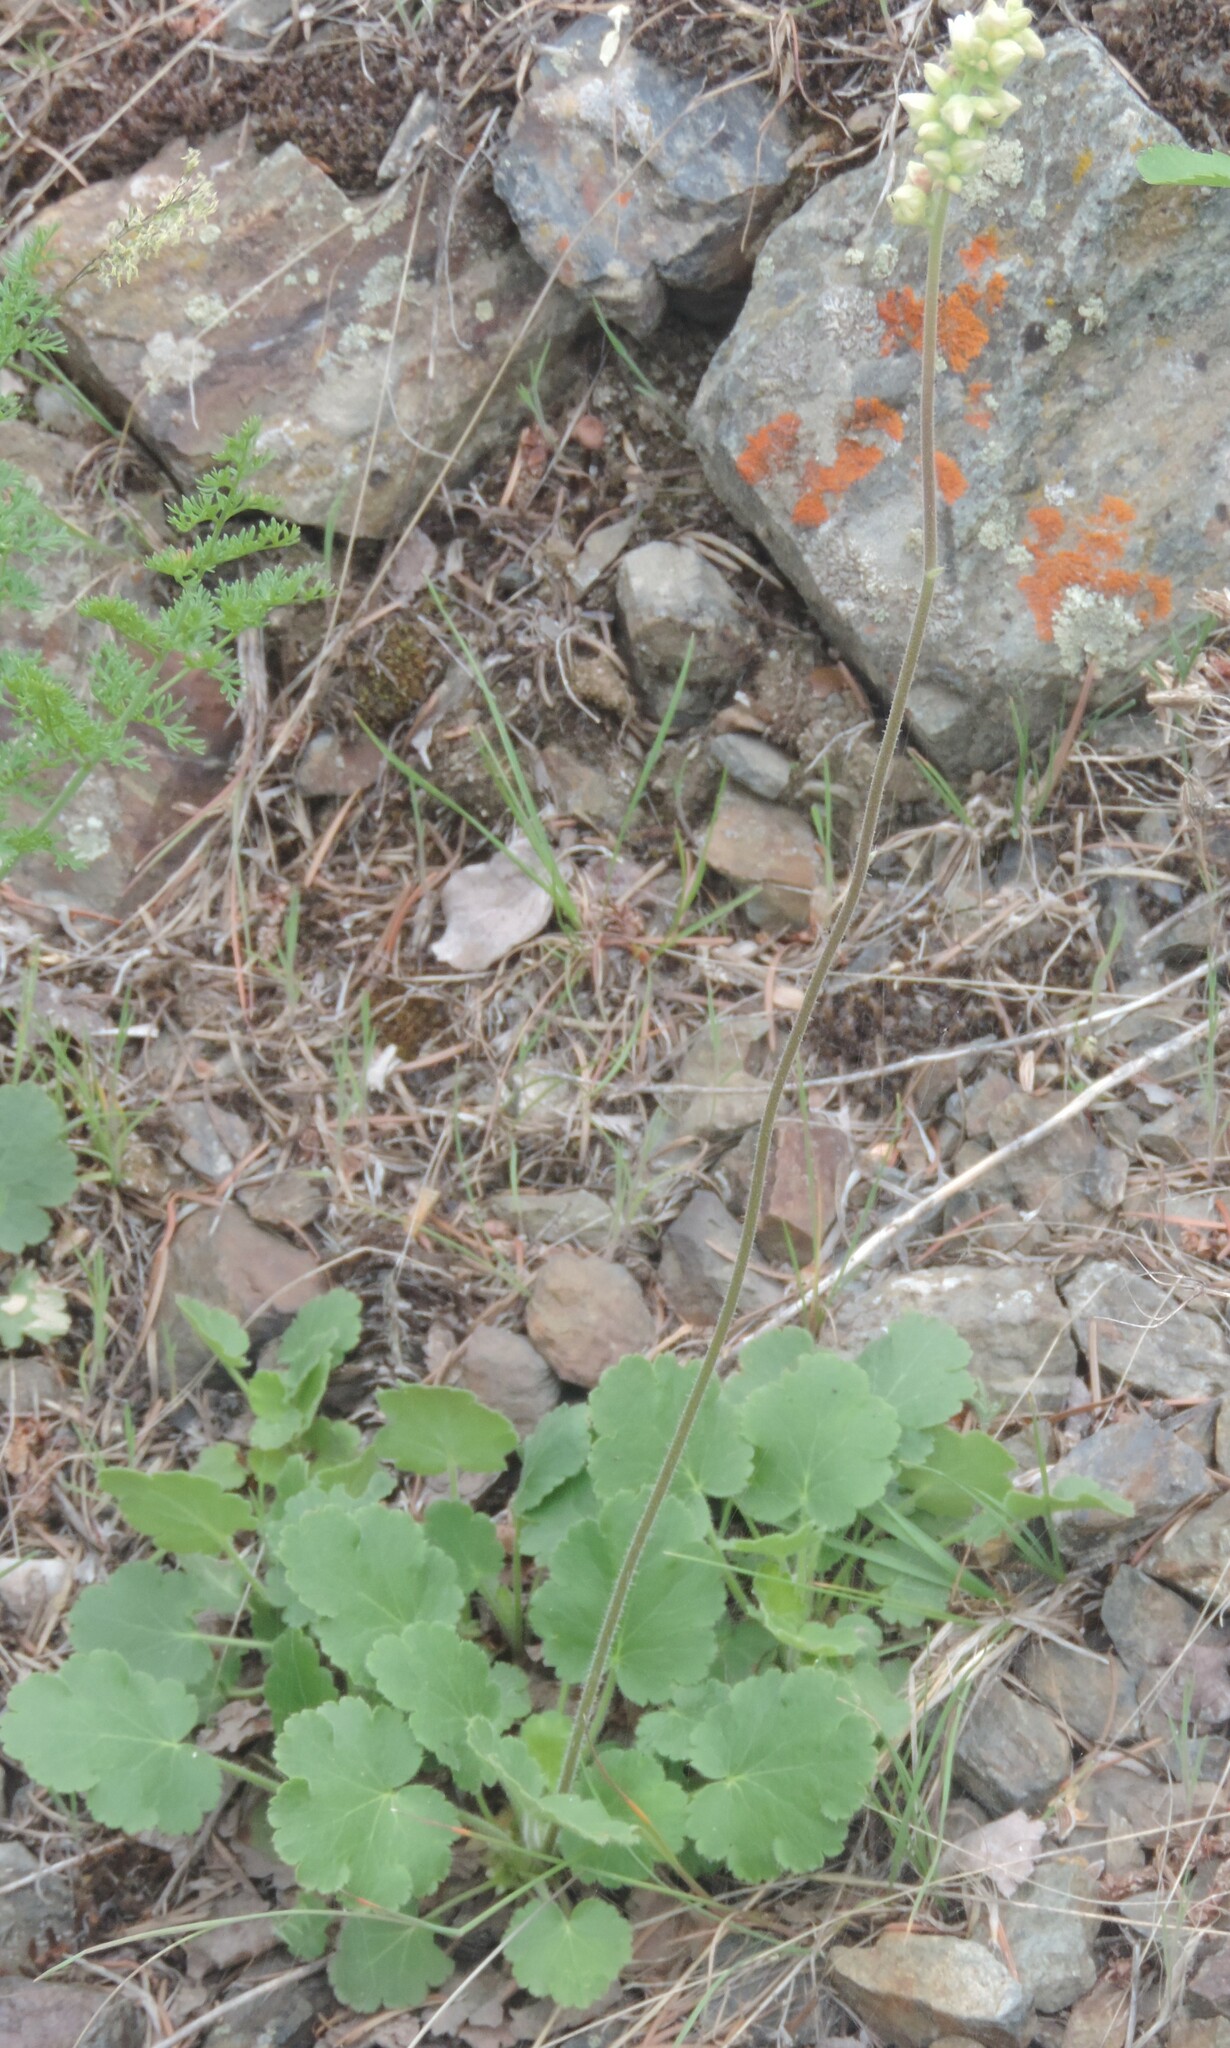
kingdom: Plantae
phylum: Tracheophyta
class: Magnoliopsida
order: Saxifragales
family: Saxifragaceae
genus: Heuchera
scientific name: Heuchera cylindrica
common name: Mat alumroot
